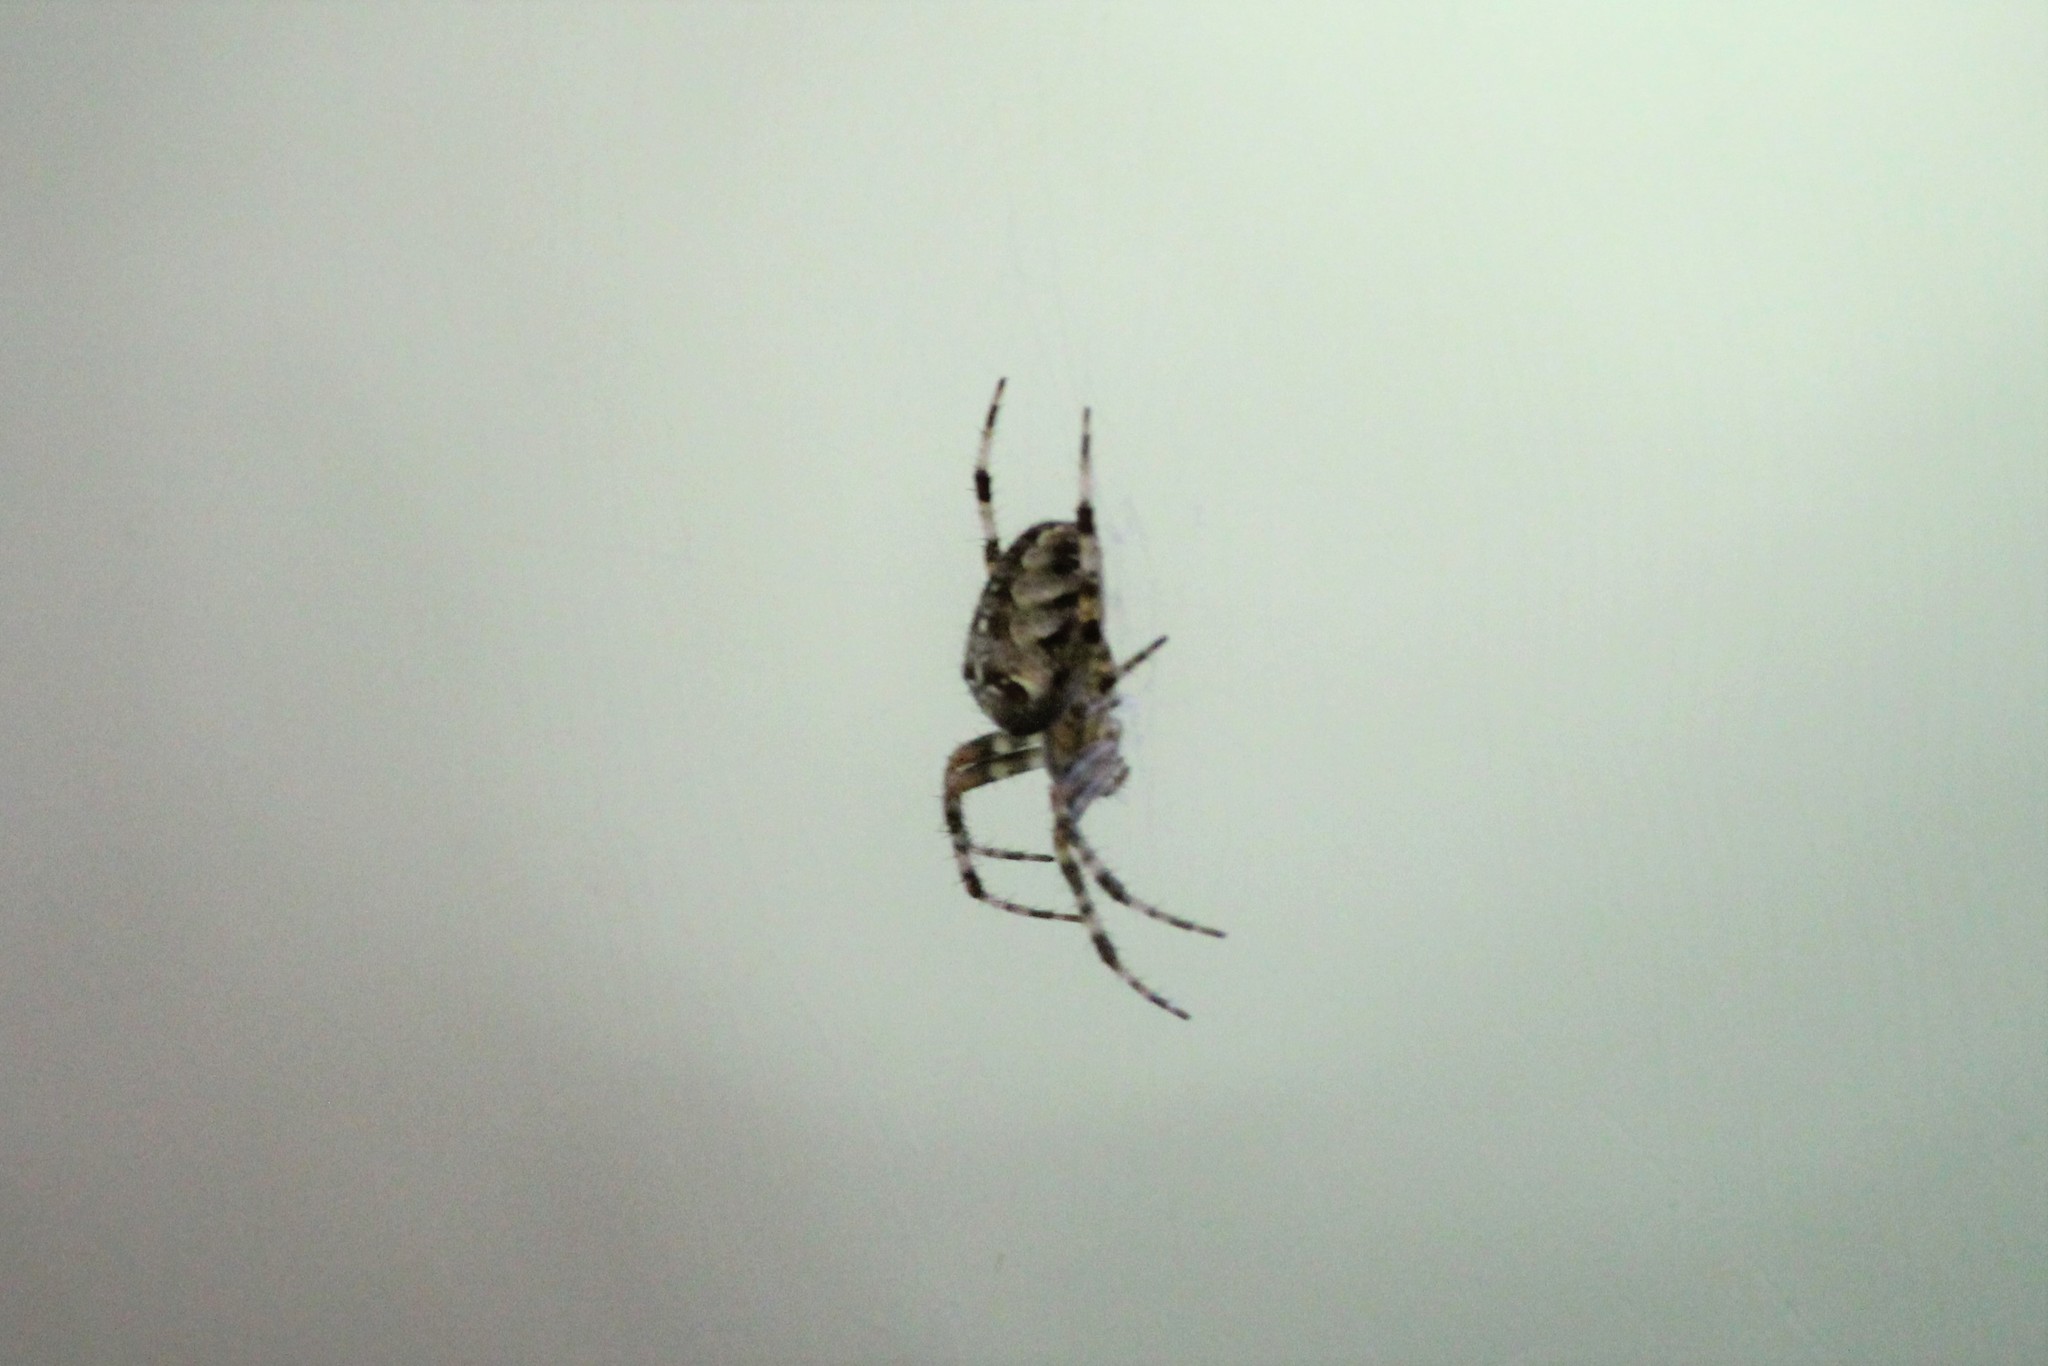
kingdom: Animalia
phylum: Arthropoda
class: Arachnida
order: Araneae
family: Araneidae
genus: Araneus
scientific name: Araneus diadematus
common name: Cross orbweaver
